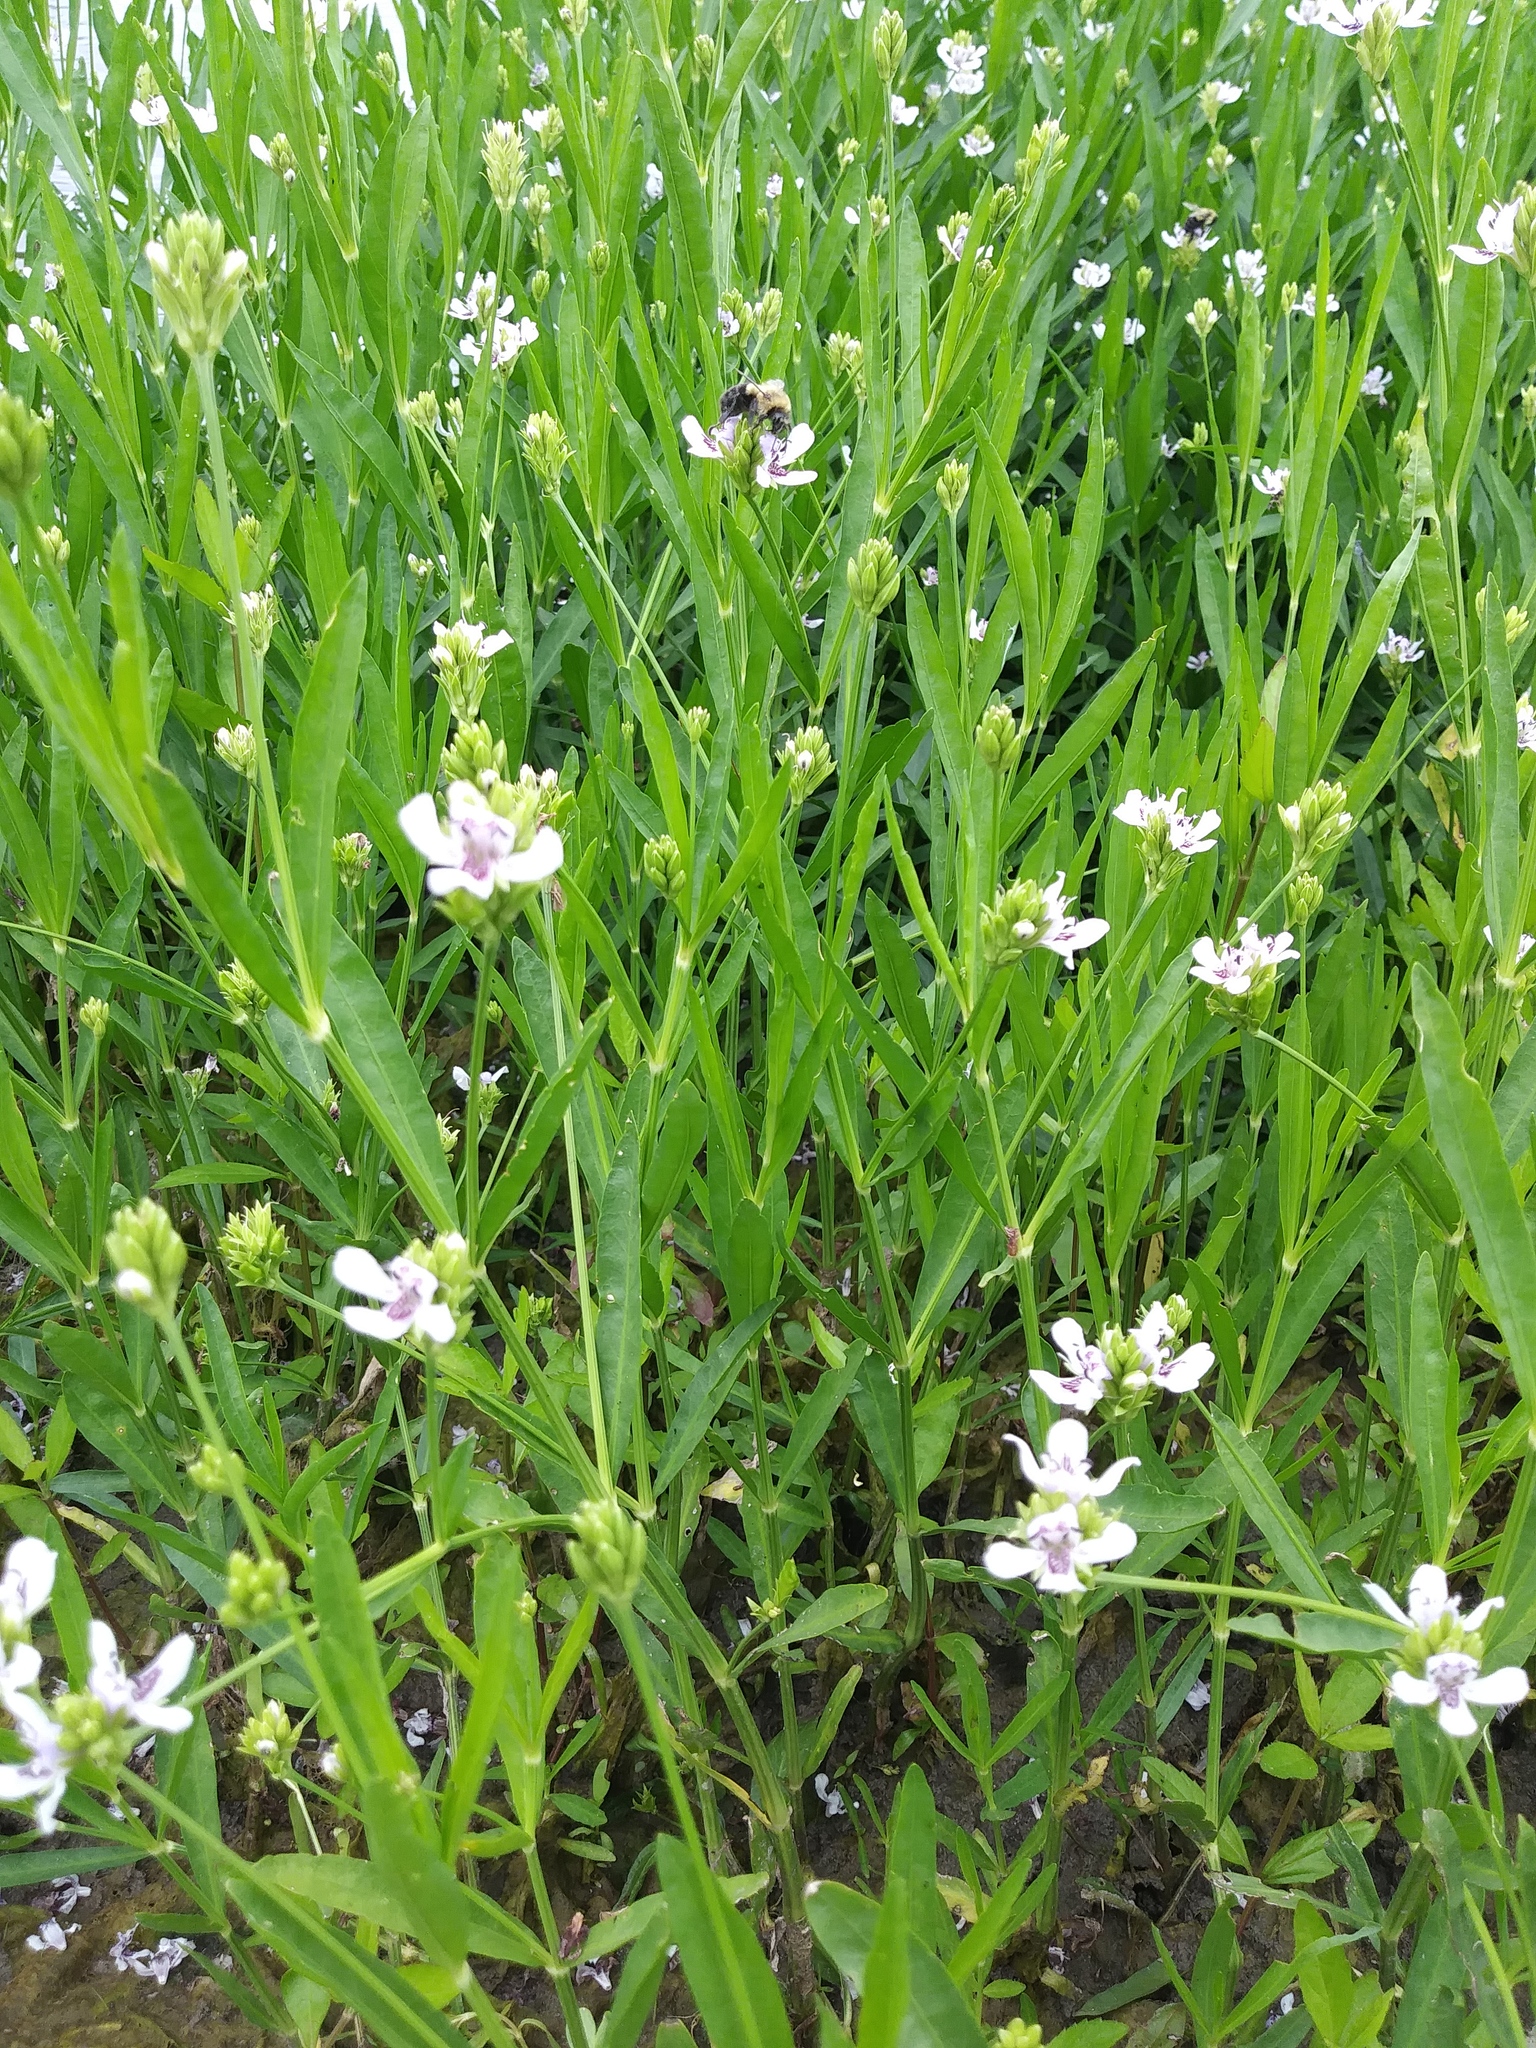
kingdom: Plantae
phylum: Tracheophyta
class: Magnoliopsida
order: Lamiales
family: Acanthaceae
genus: Dianthera
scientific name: Dianthera americana
